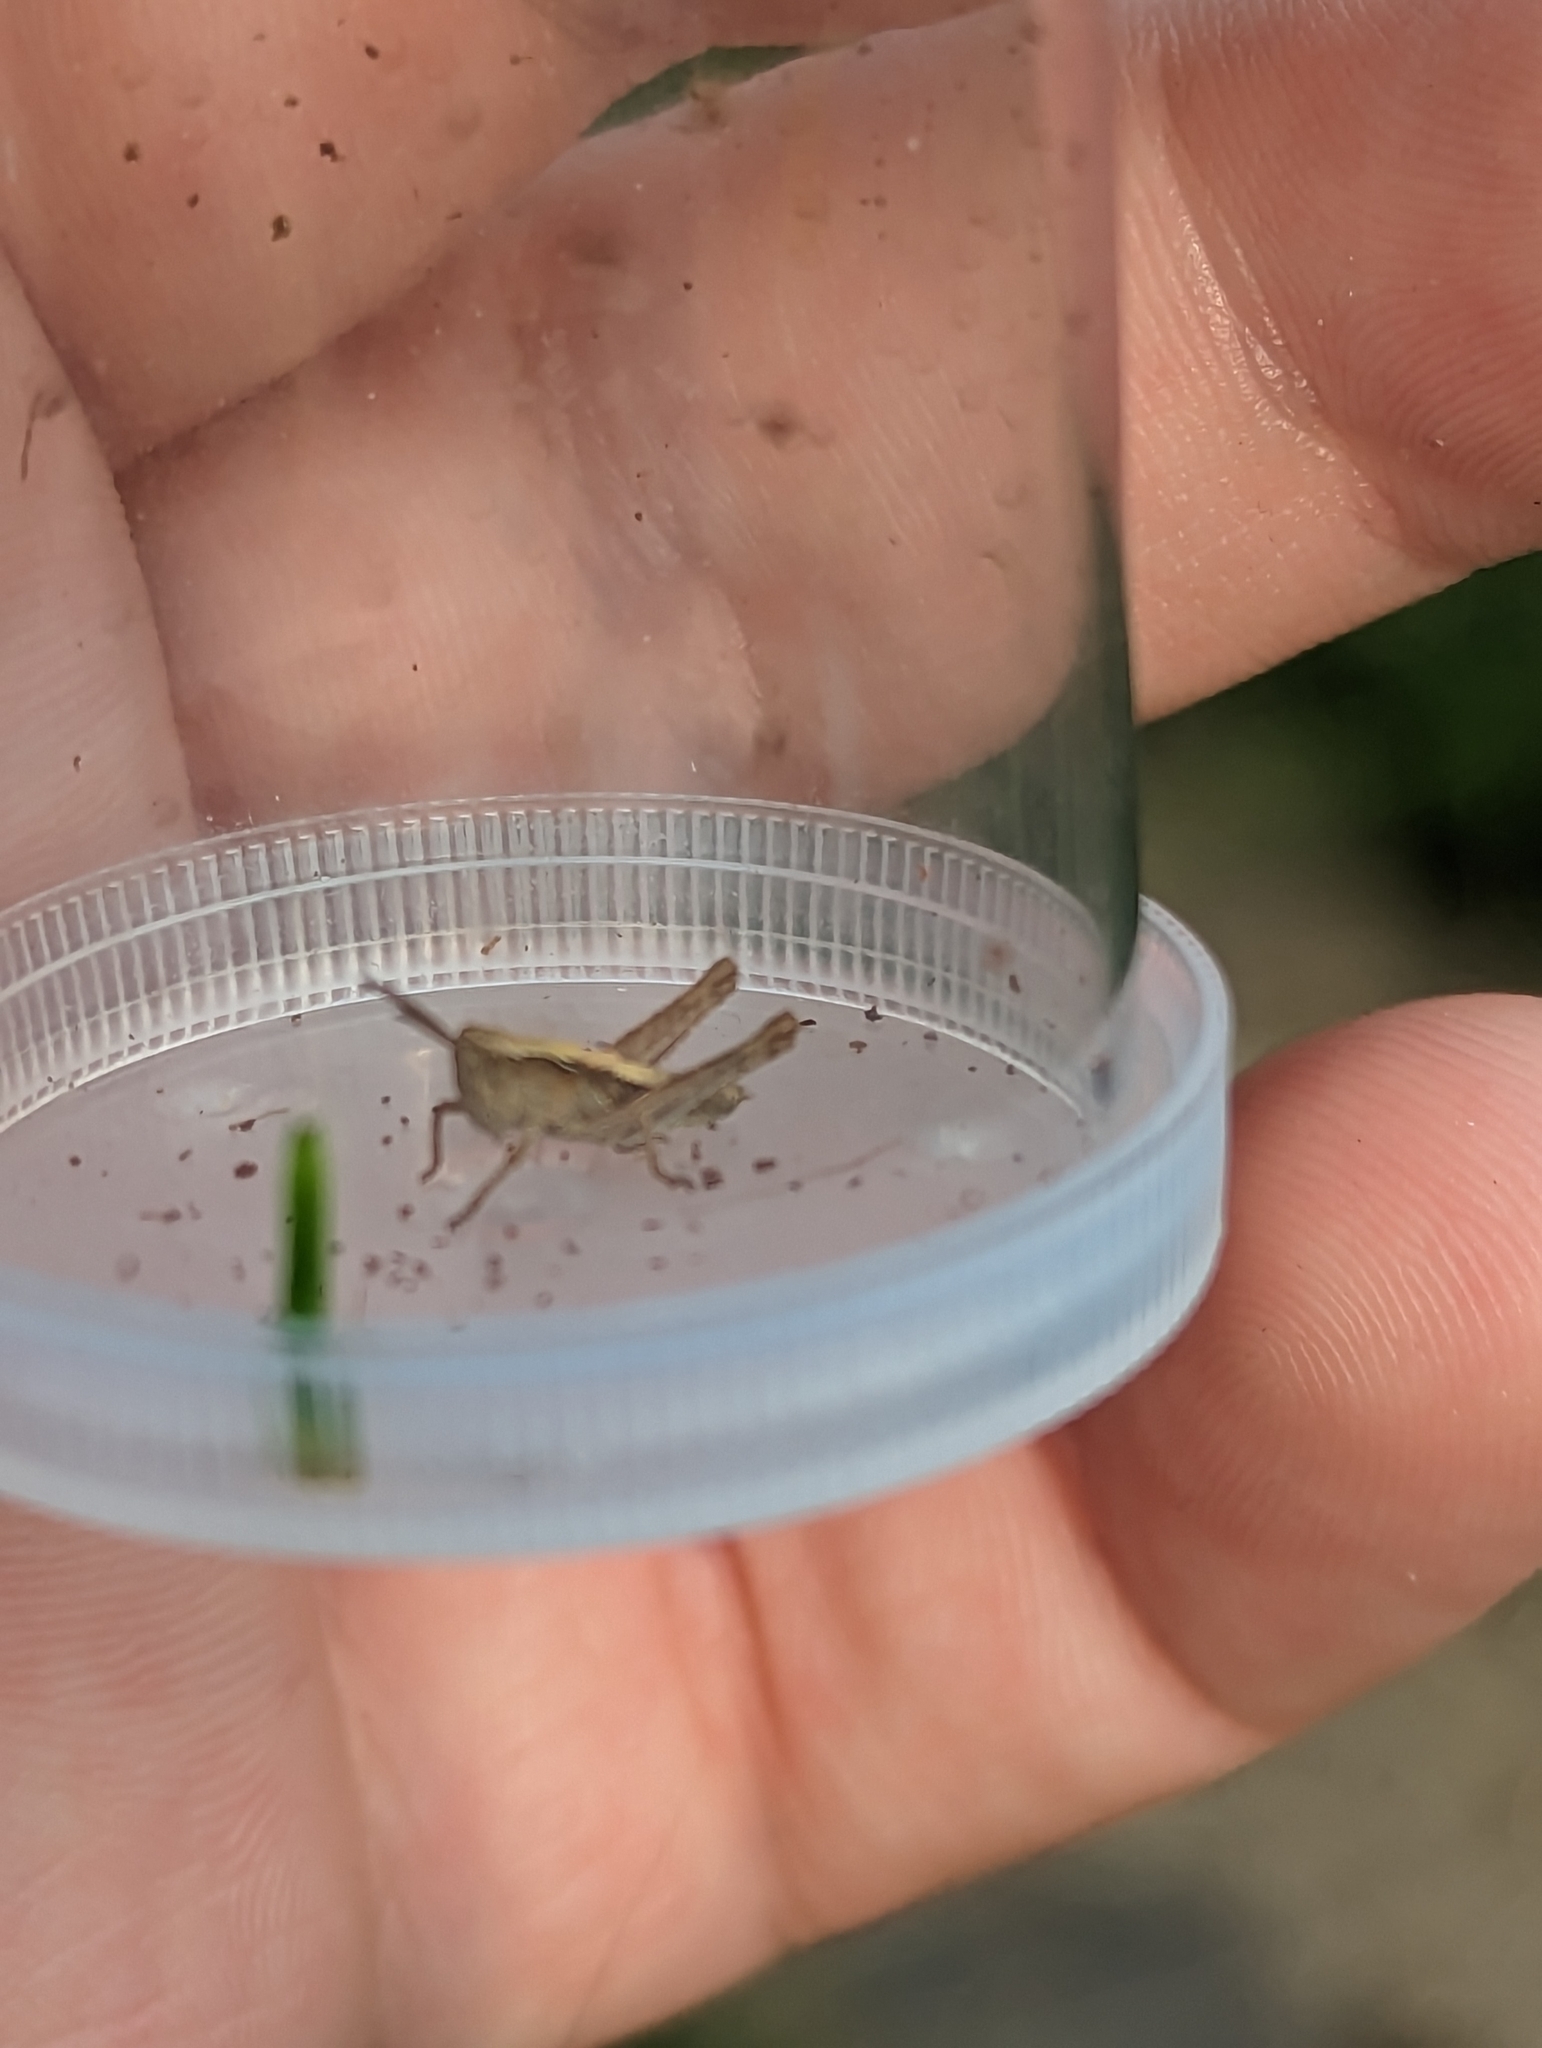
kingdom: Animalia
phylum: Arthropoda
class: Insecta
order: Orthoptera
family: Acrididae
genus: Chorthippus
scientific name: Chorthippus brunneus
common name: Field grasshopper
